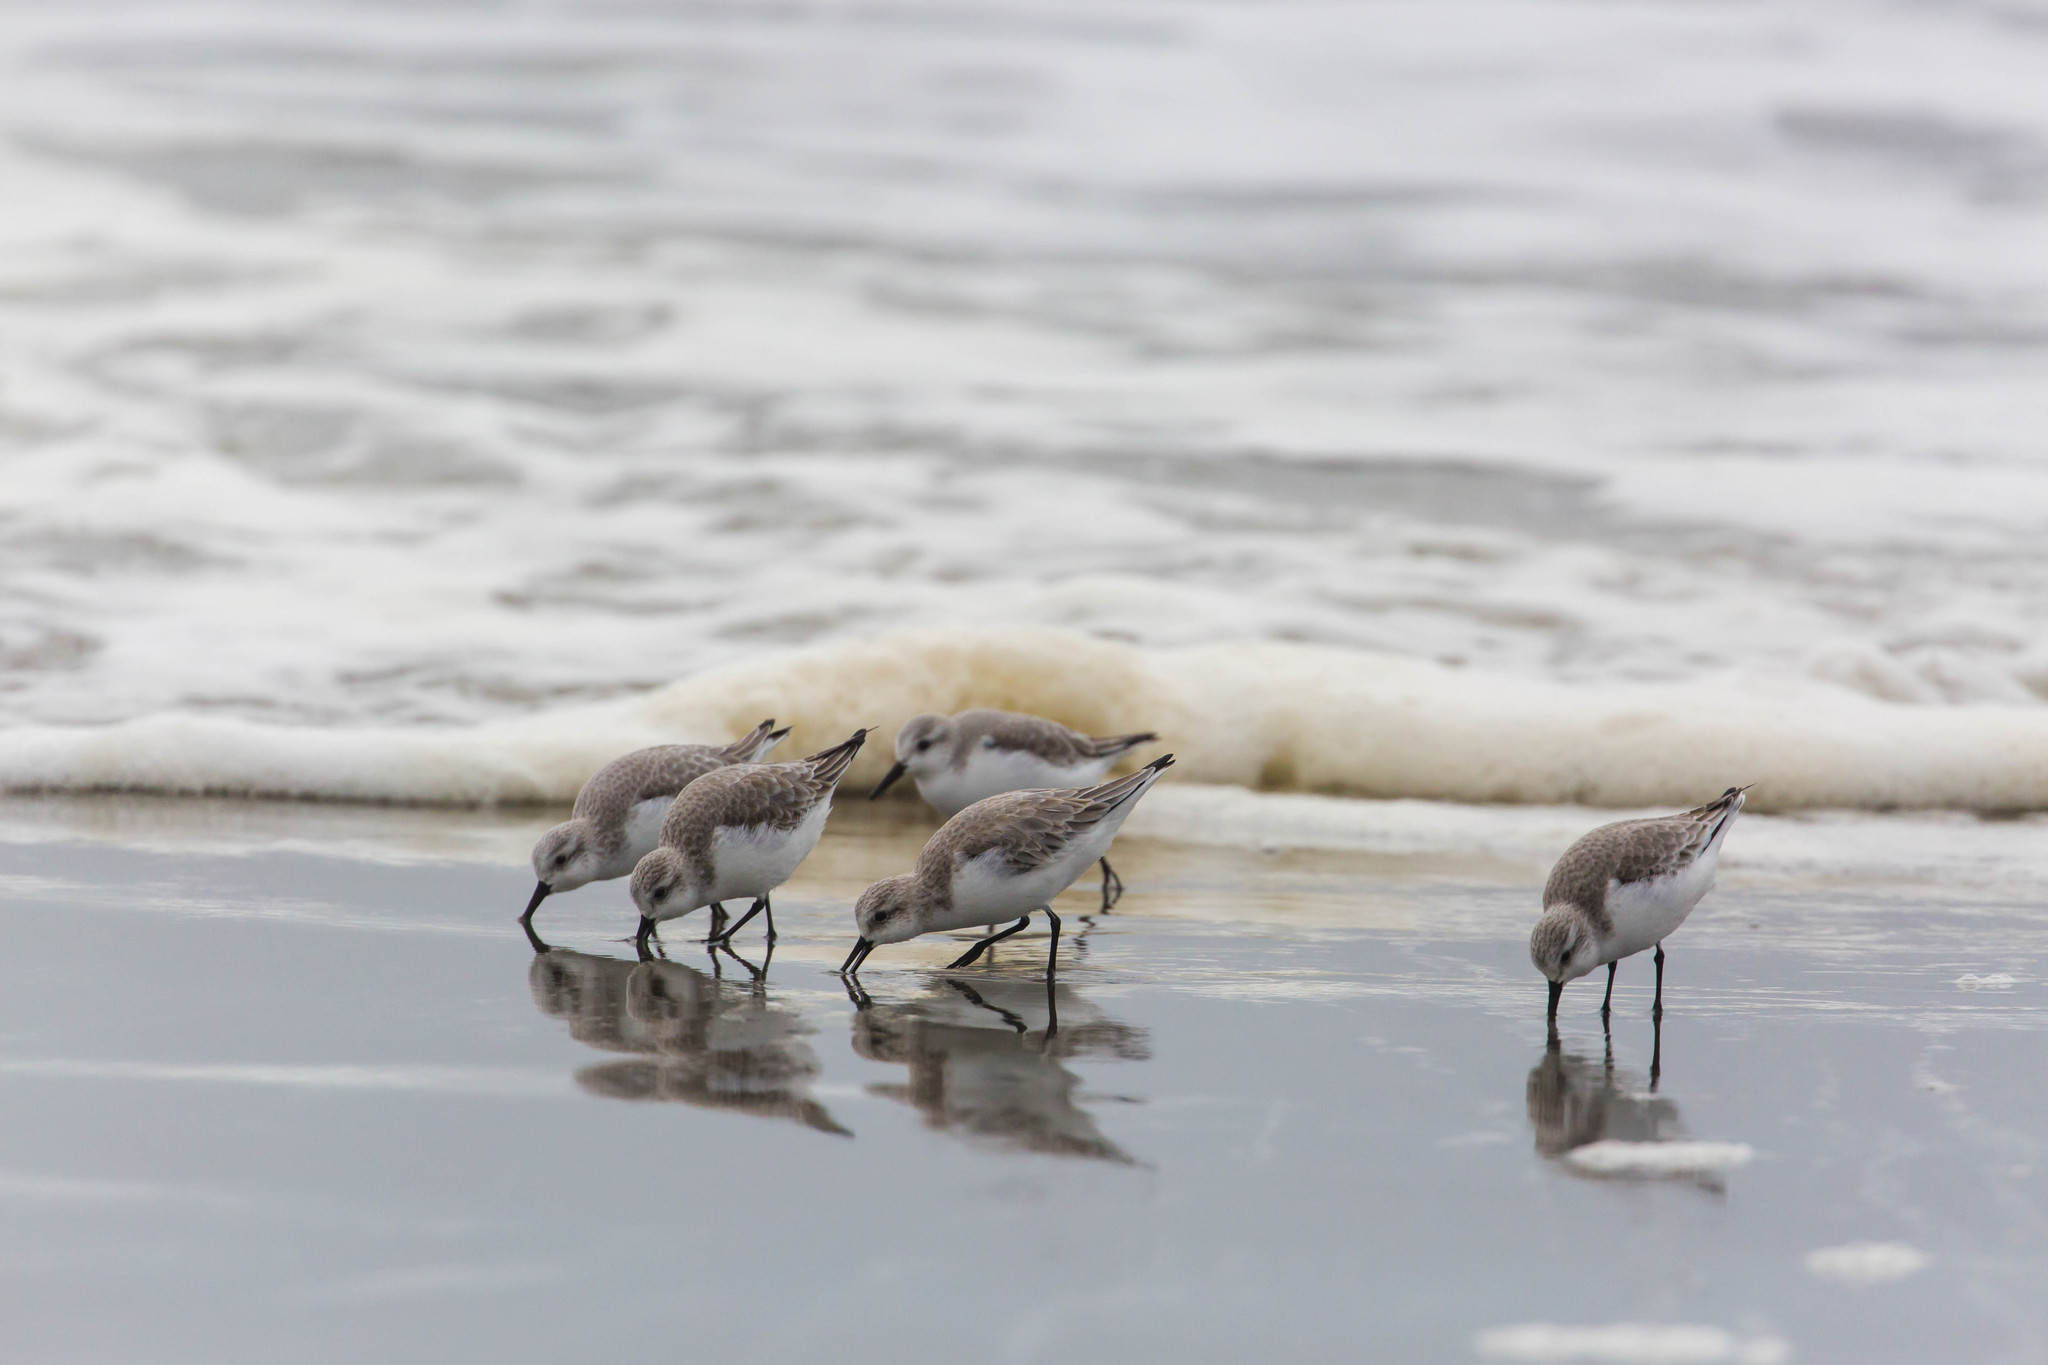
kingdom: Animalia
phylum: Chordata
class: Aves
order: Charadriiformes
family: Scolopacidae
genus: Calidris
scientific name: Calidris alba
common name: Sanderling
